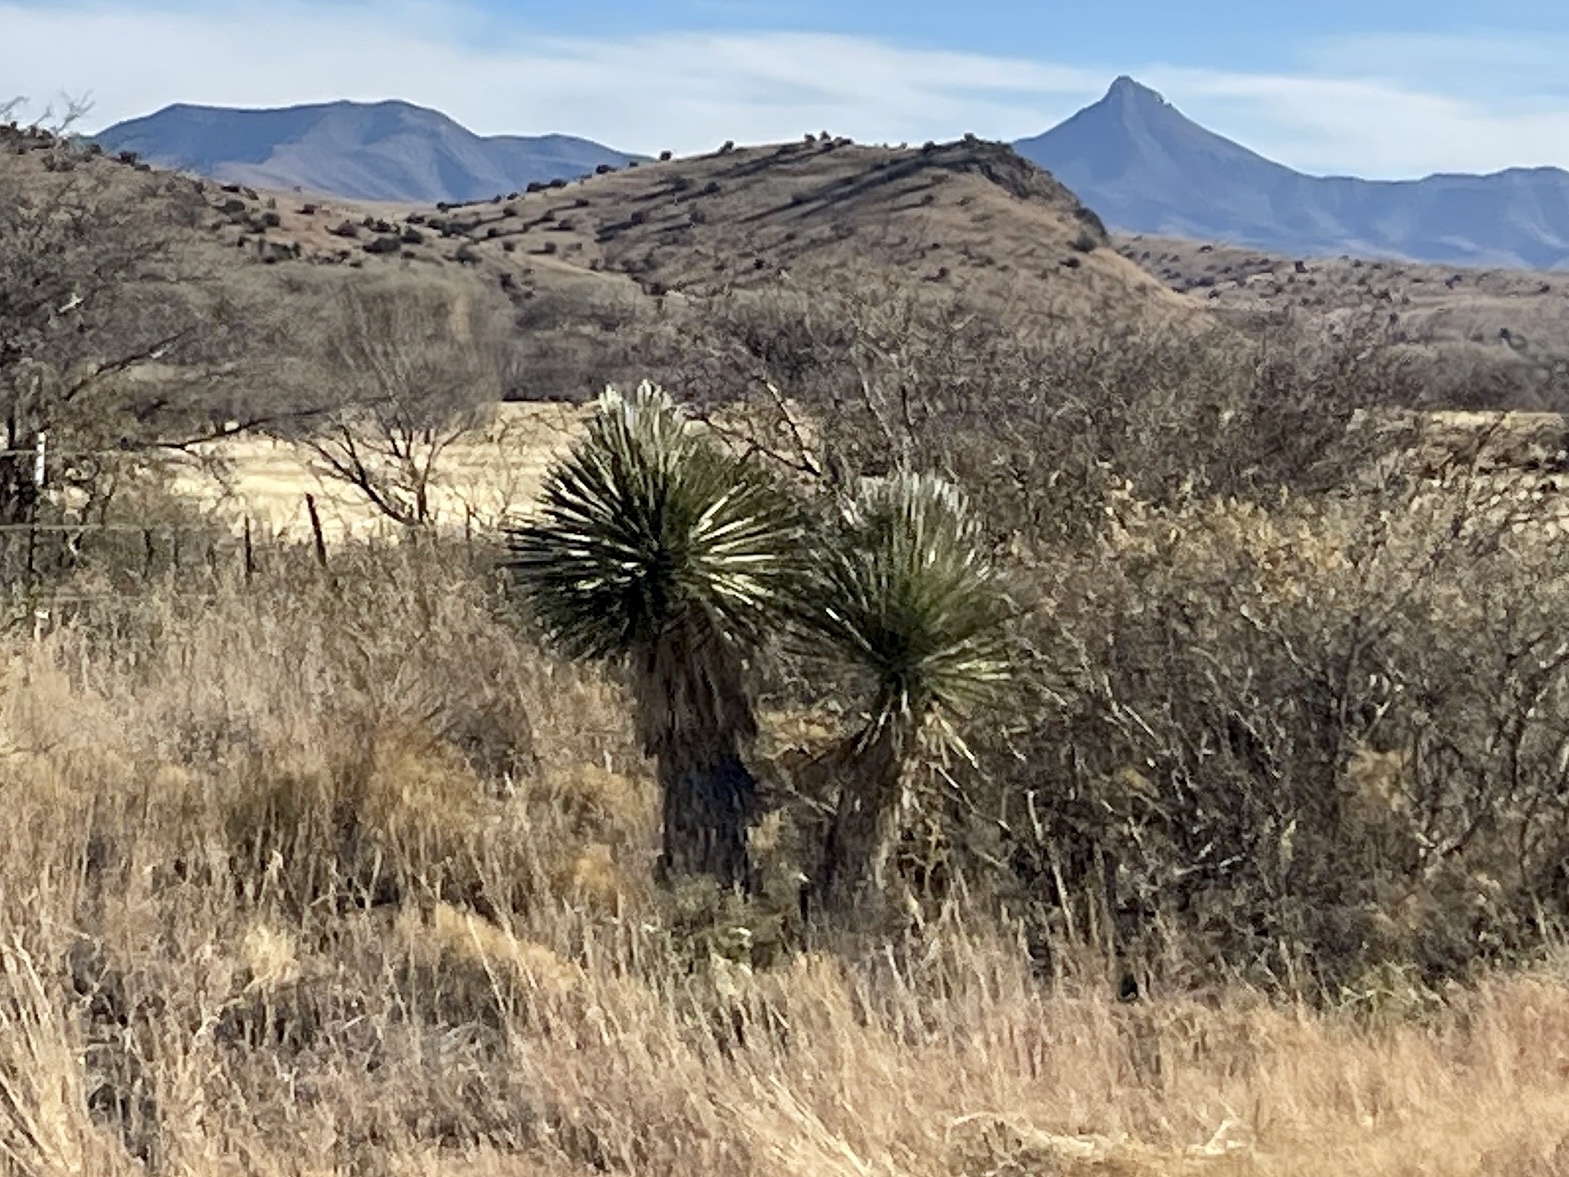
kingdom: Plantae
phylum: Tracheophyta
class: Liliopsida
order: Asparagales
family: Asparagaceae
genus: Yucca
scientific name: Yucca elata
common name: Palmella
